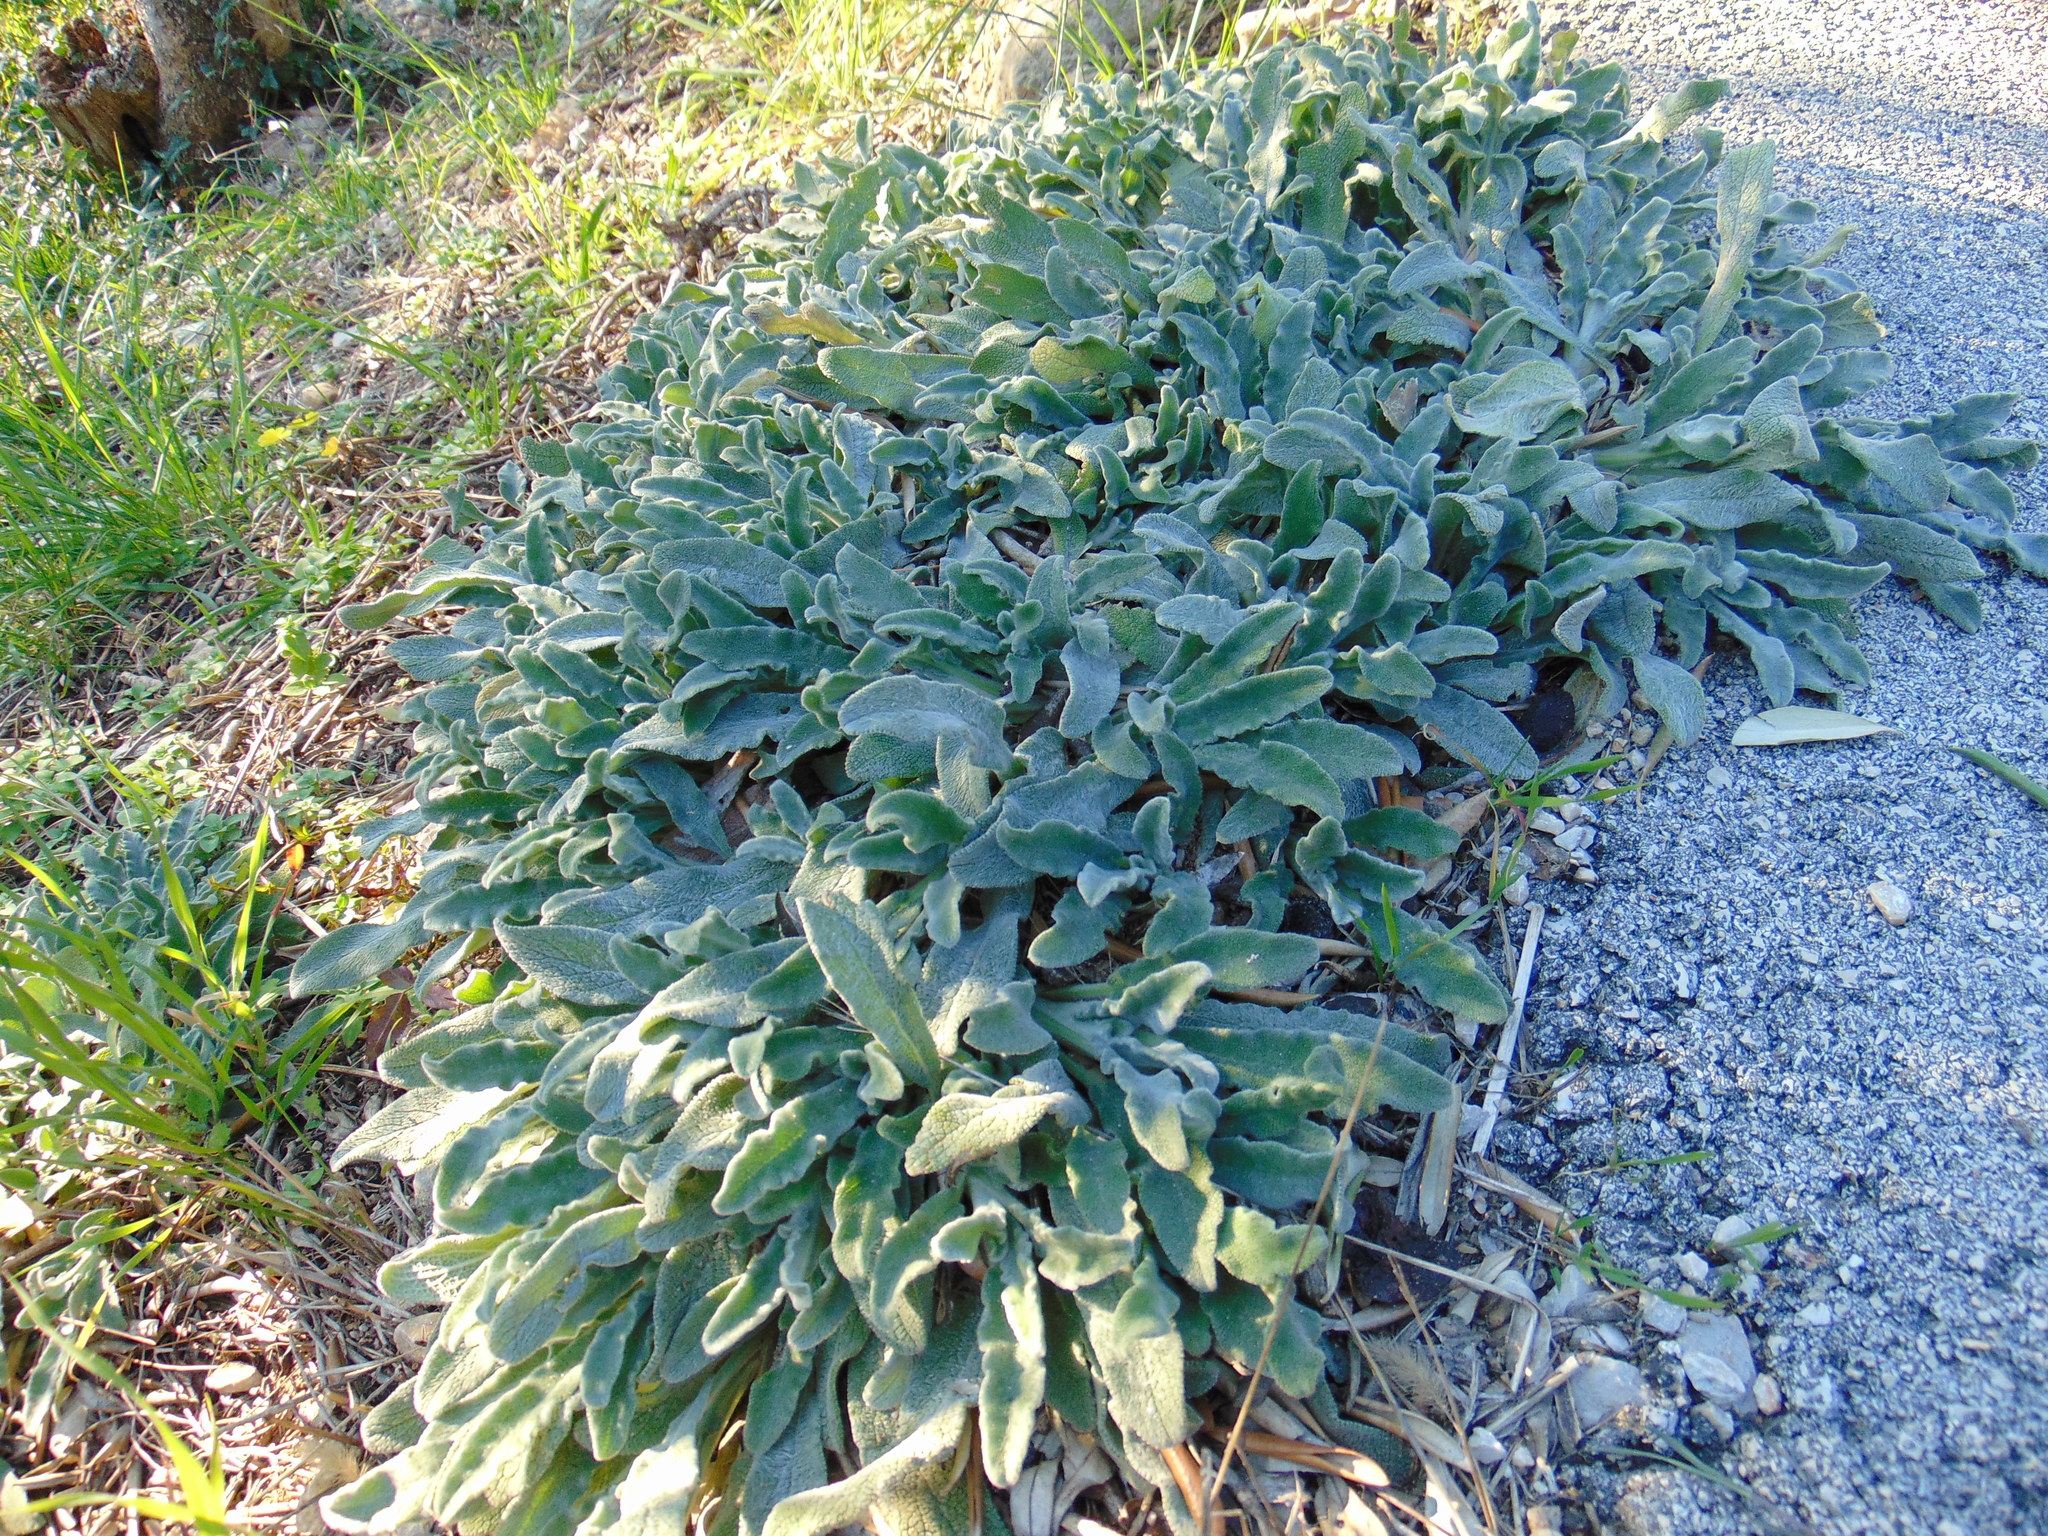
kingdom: Plantae
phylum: Tracheophyta
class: Magnoliopsida
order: Lamiales
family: Lamiaceae
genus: Stachys
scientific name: Stachys cretica
